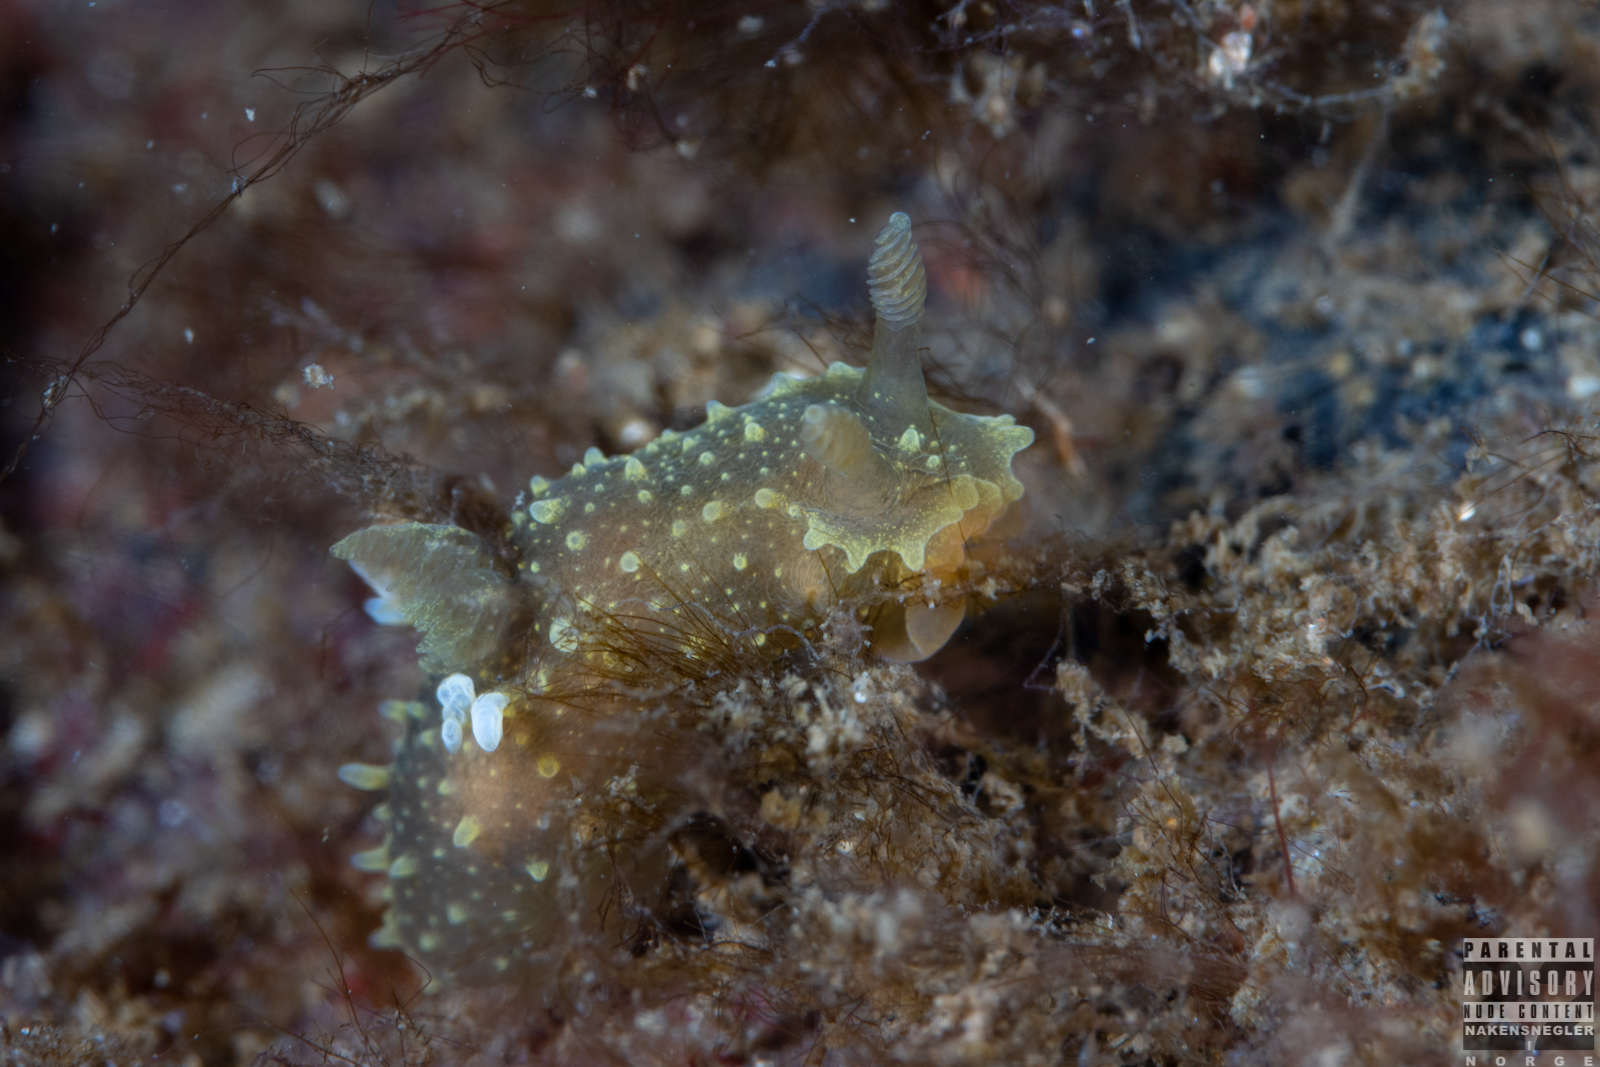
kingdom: Animalia
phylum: Mollusca
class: Gastropoda
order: Nudibranchia
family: Polyceridae
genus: Palio
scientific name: Palio dubia
